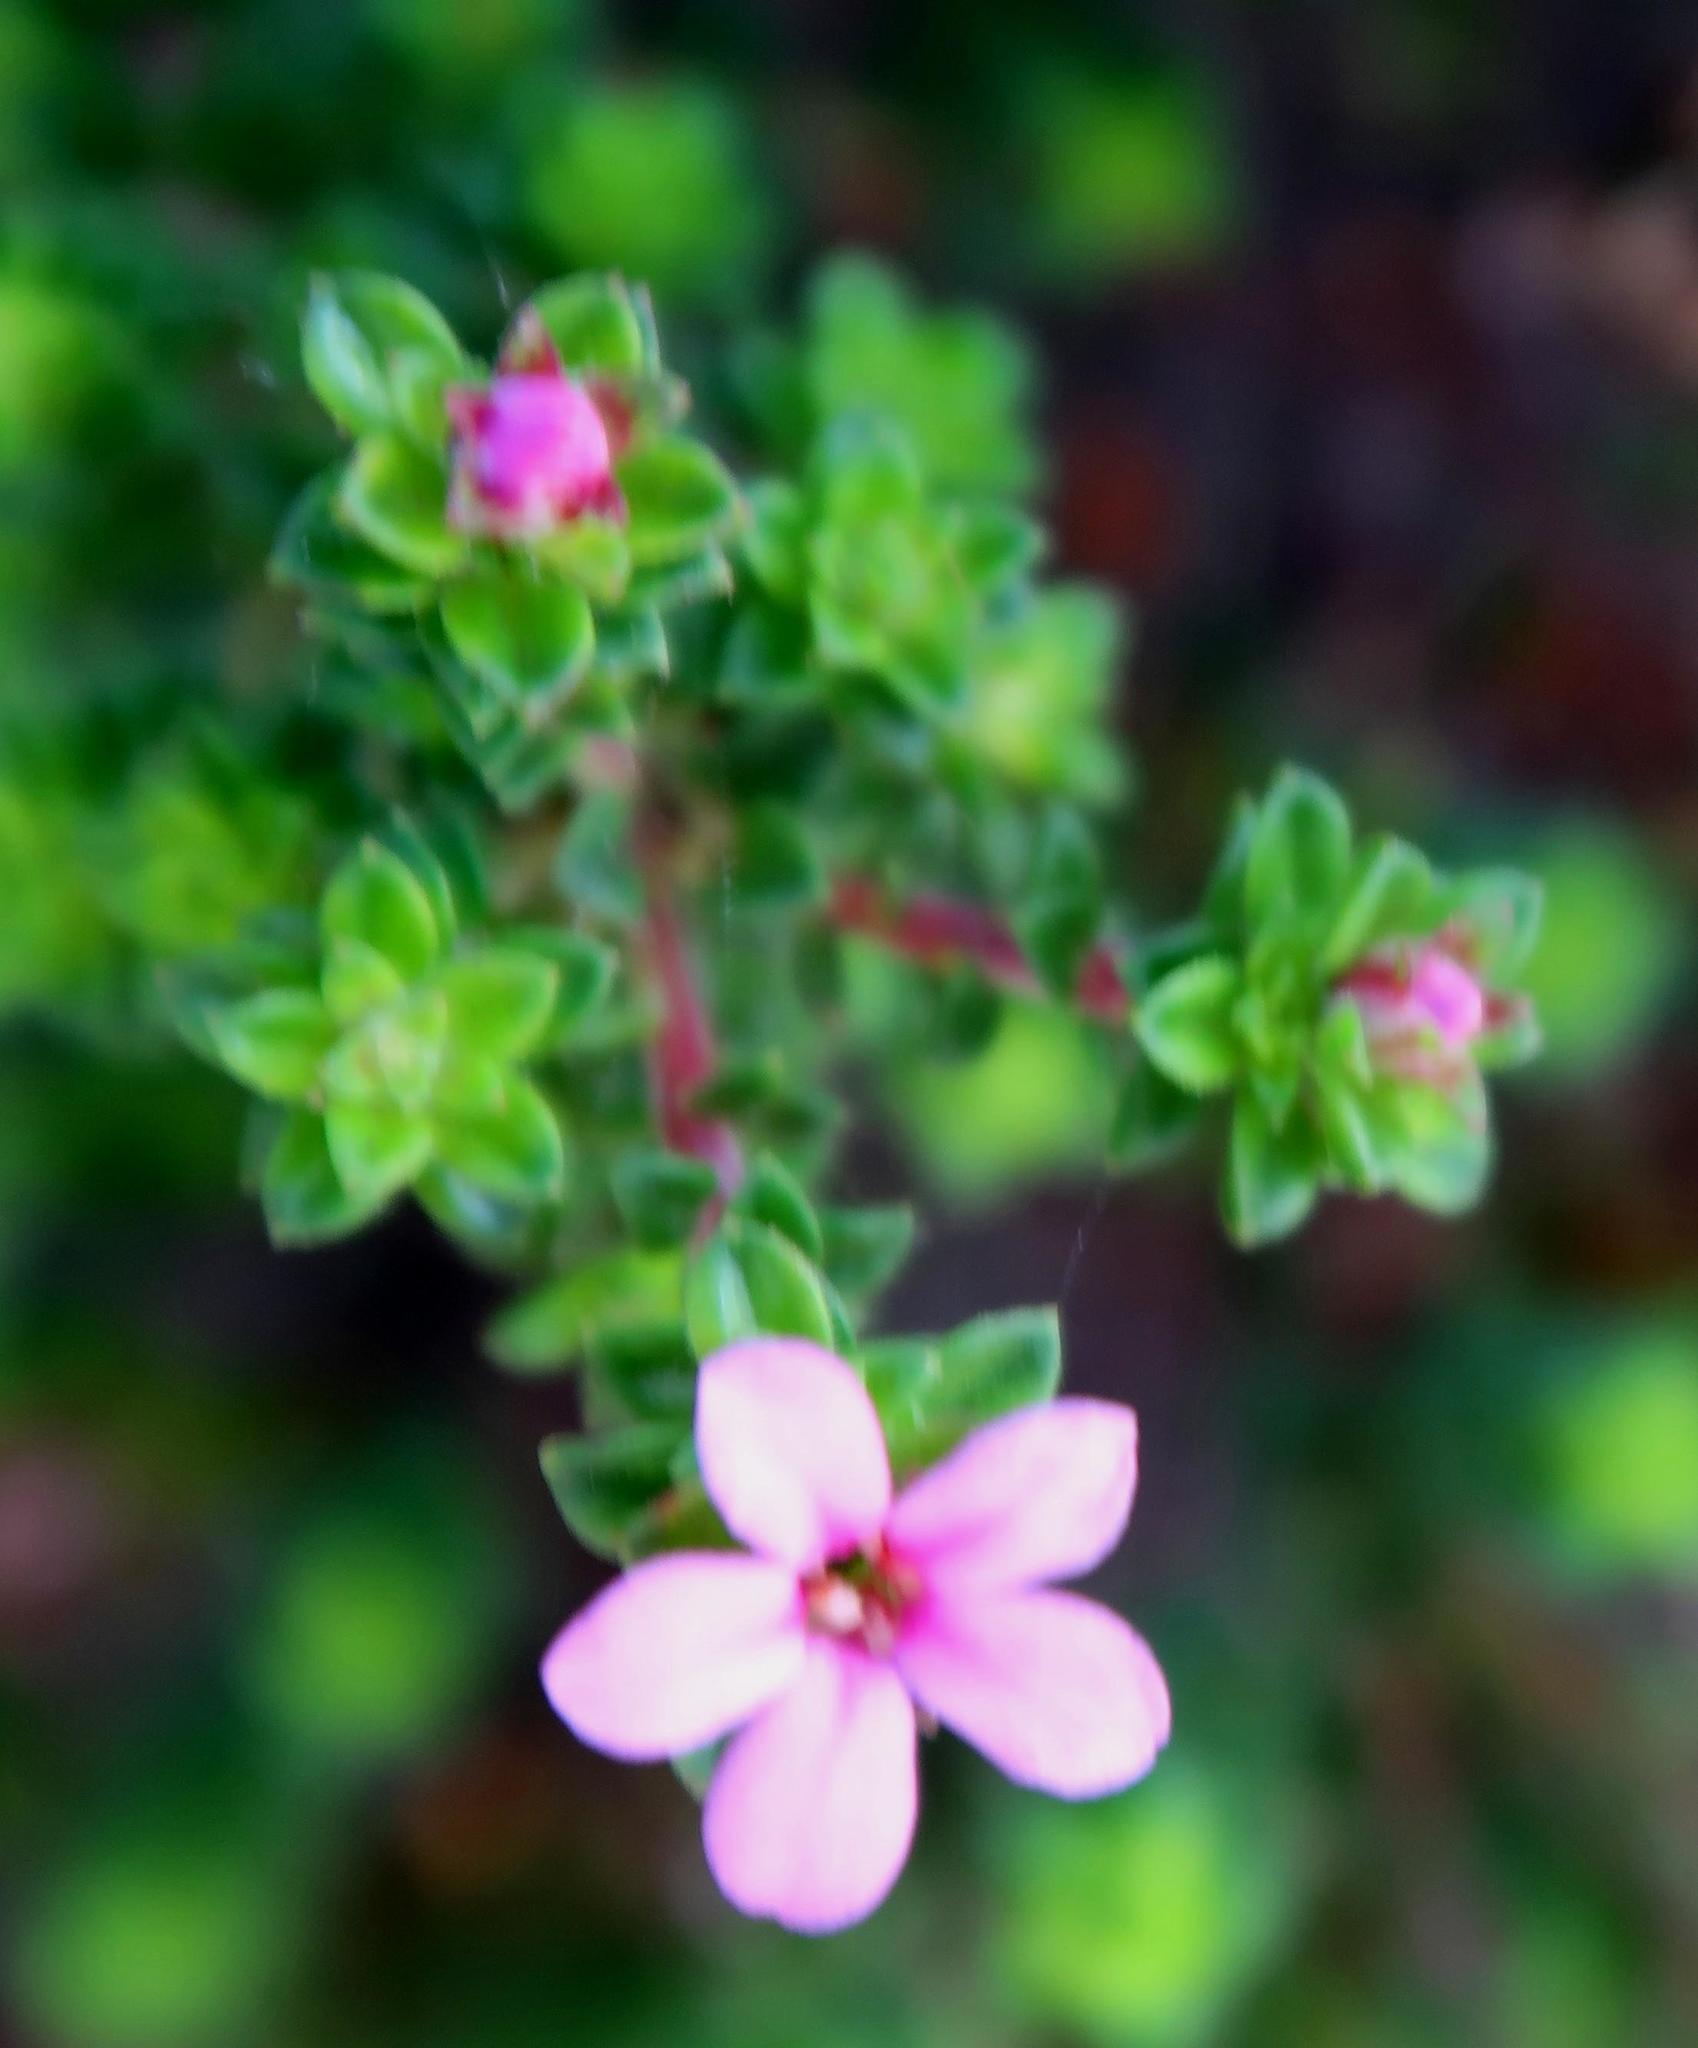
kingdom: Plantae
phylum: Tracheophyta
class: Magnoliopsida
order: Sapindales
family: Rutaceae
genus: Acmadenia
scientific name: Acmadenia heterophylla
